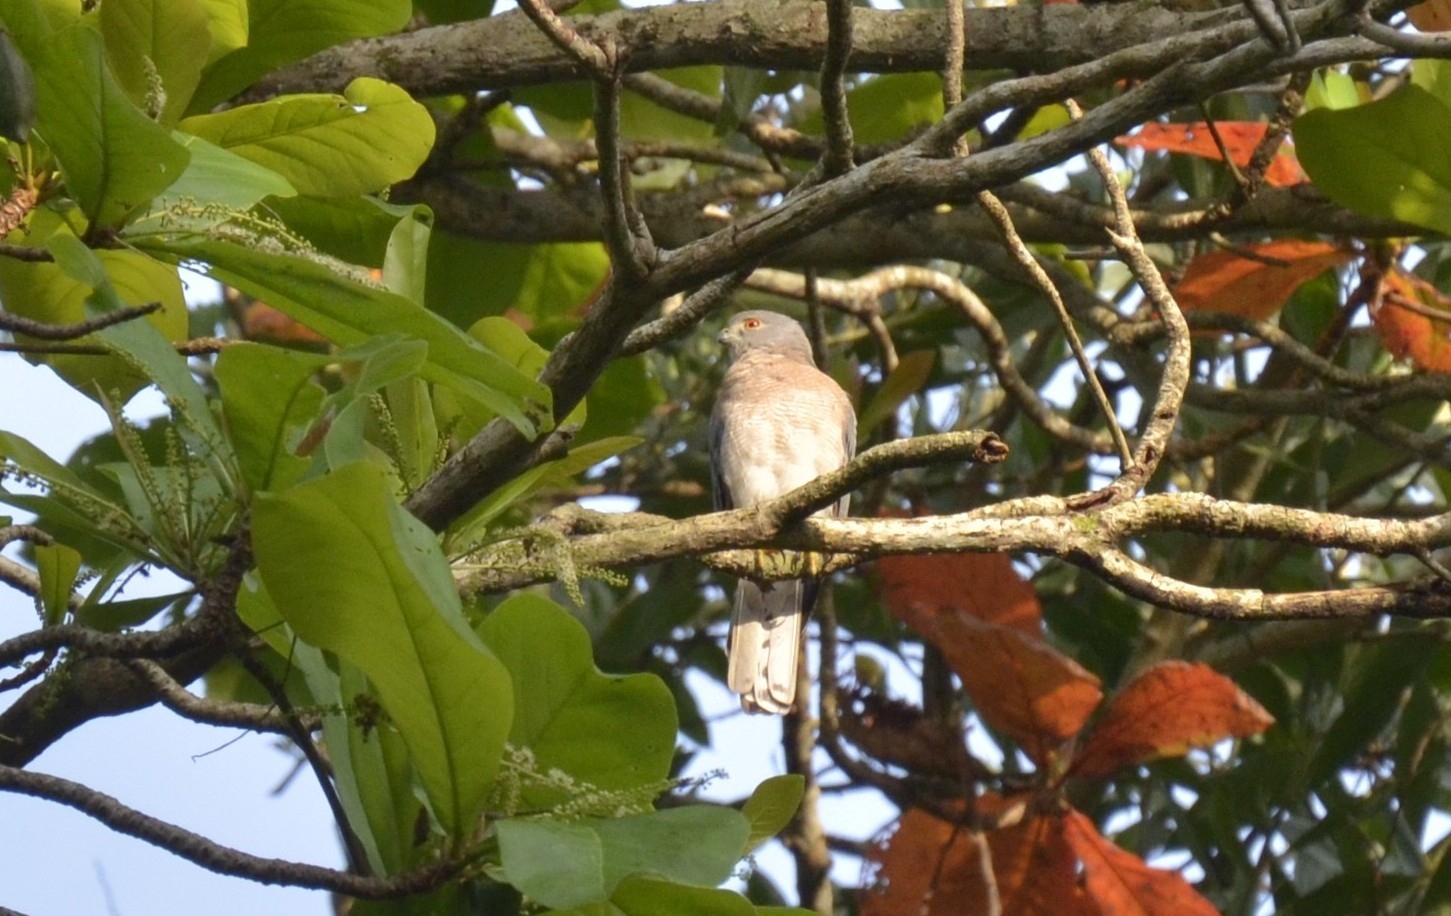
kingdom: Animalia
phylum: Chordata
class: Aves
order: Accipitriformes
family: Accipitridae
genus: Accipiter
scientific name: Accipiter badius
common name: Shikra
